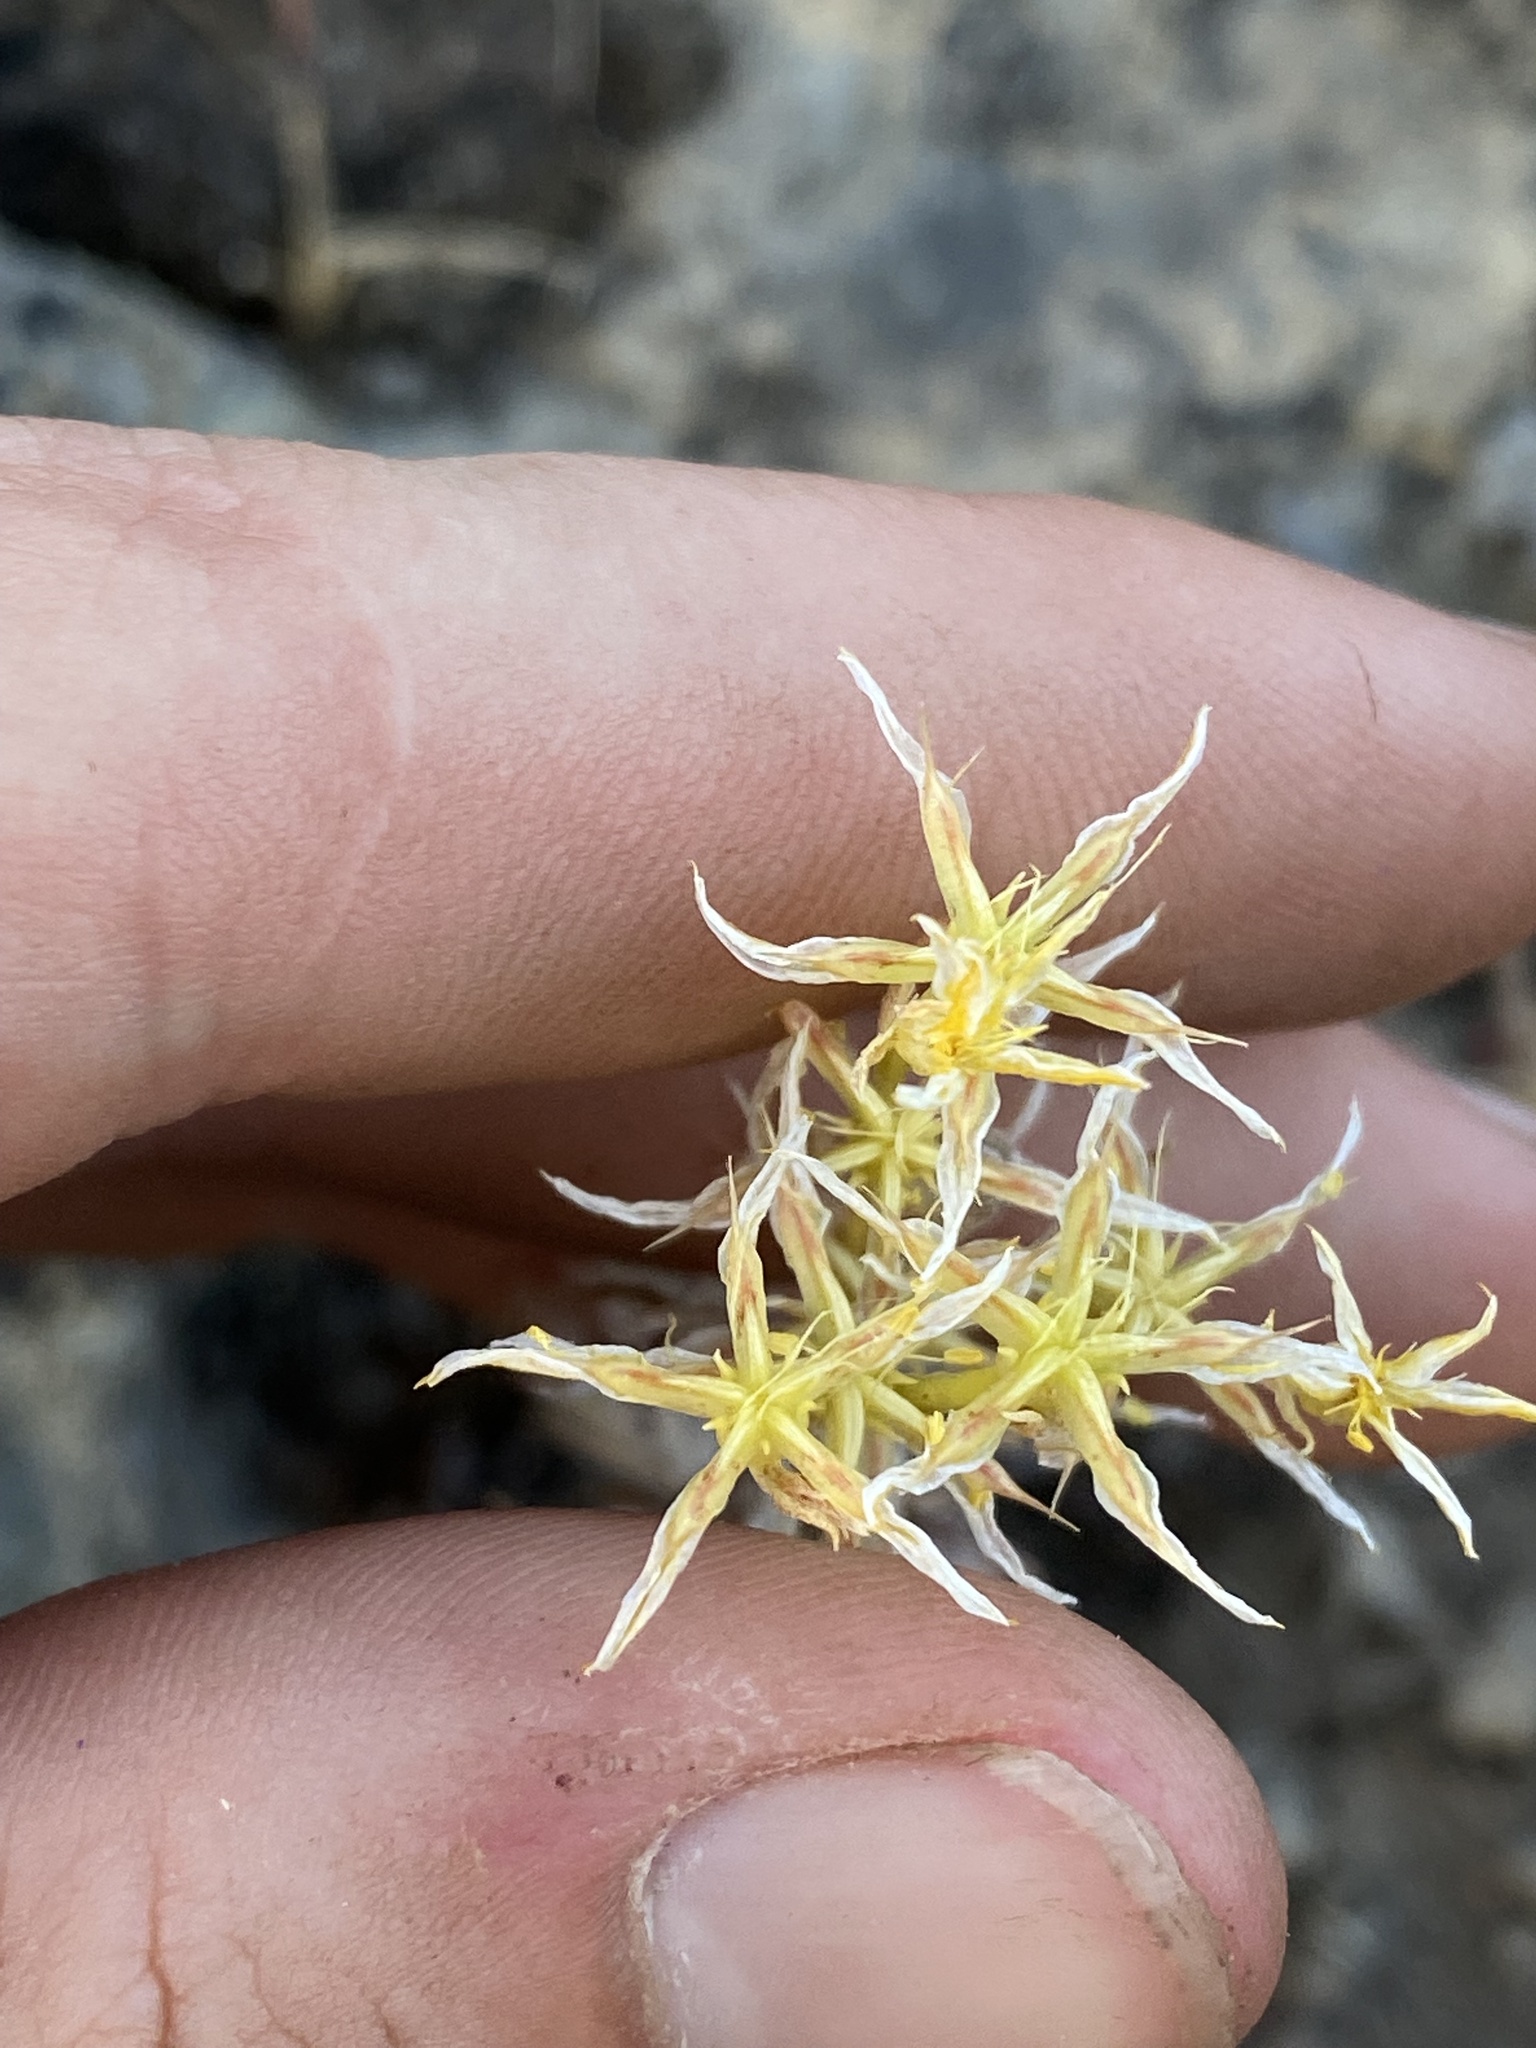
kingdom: Plantae
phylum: Tracheophyta
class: Magnoliopsida
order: Saxifragales
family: Crassulaceae
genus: Sedum
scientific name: Sedum stenopetalum
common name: Narrow-petaled stonecrop
